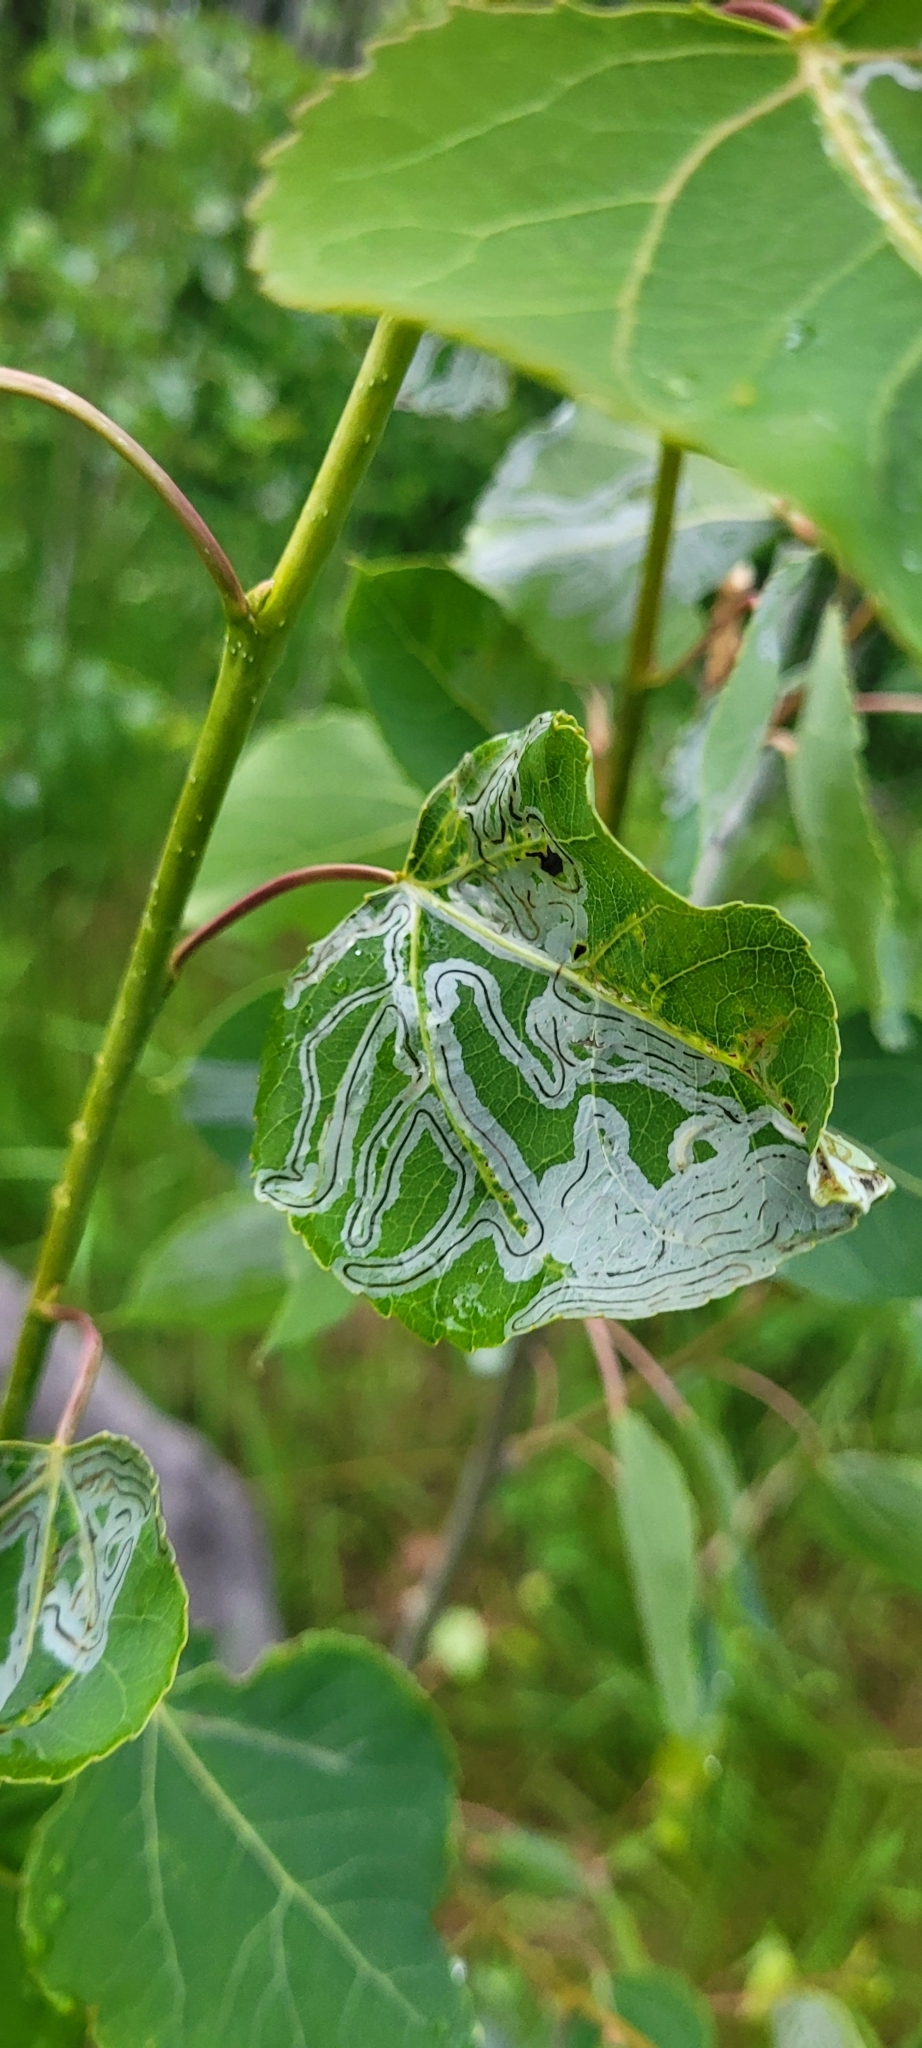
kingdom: Animalia
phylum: Arthropoda
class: Insecta
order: Lepidoptera
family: Gracillariidae
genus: Phyllocnistis
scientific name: Phyllocnistis populiella
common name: Aspen serpentine leafminer moth
